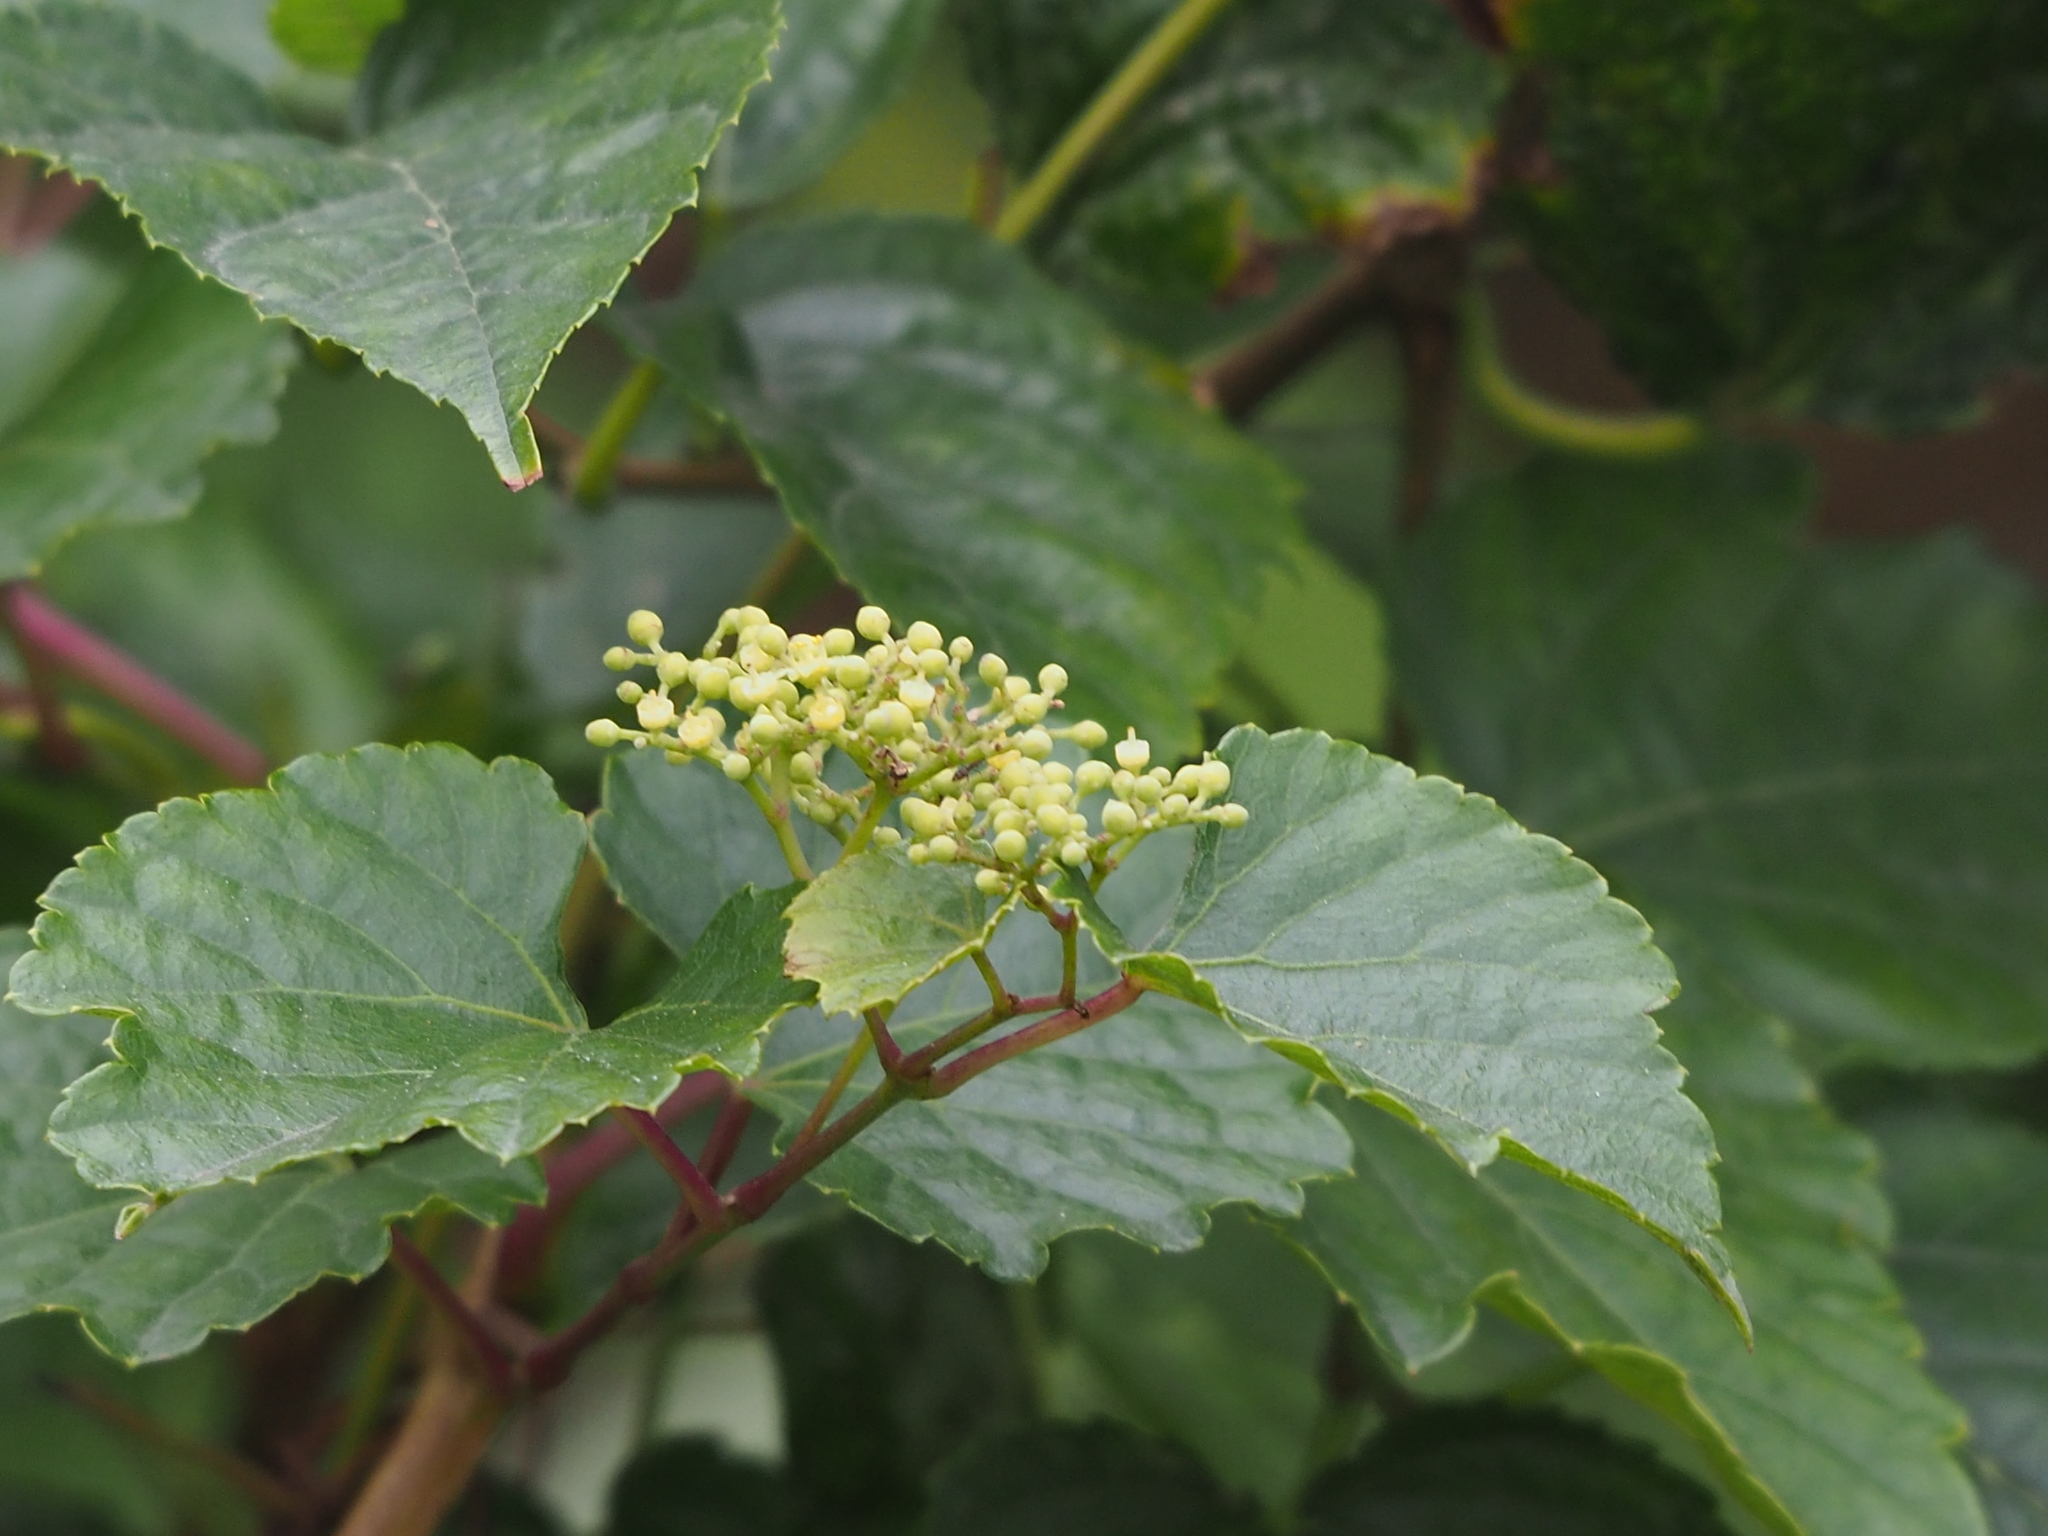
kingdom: Plantae
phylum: Tracheophyta
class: Magnoliopsida
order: Vitales
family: Vitaceae
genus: Ampelopsis
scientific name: Ampelopsis glandulosa
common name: Amur peppervine
